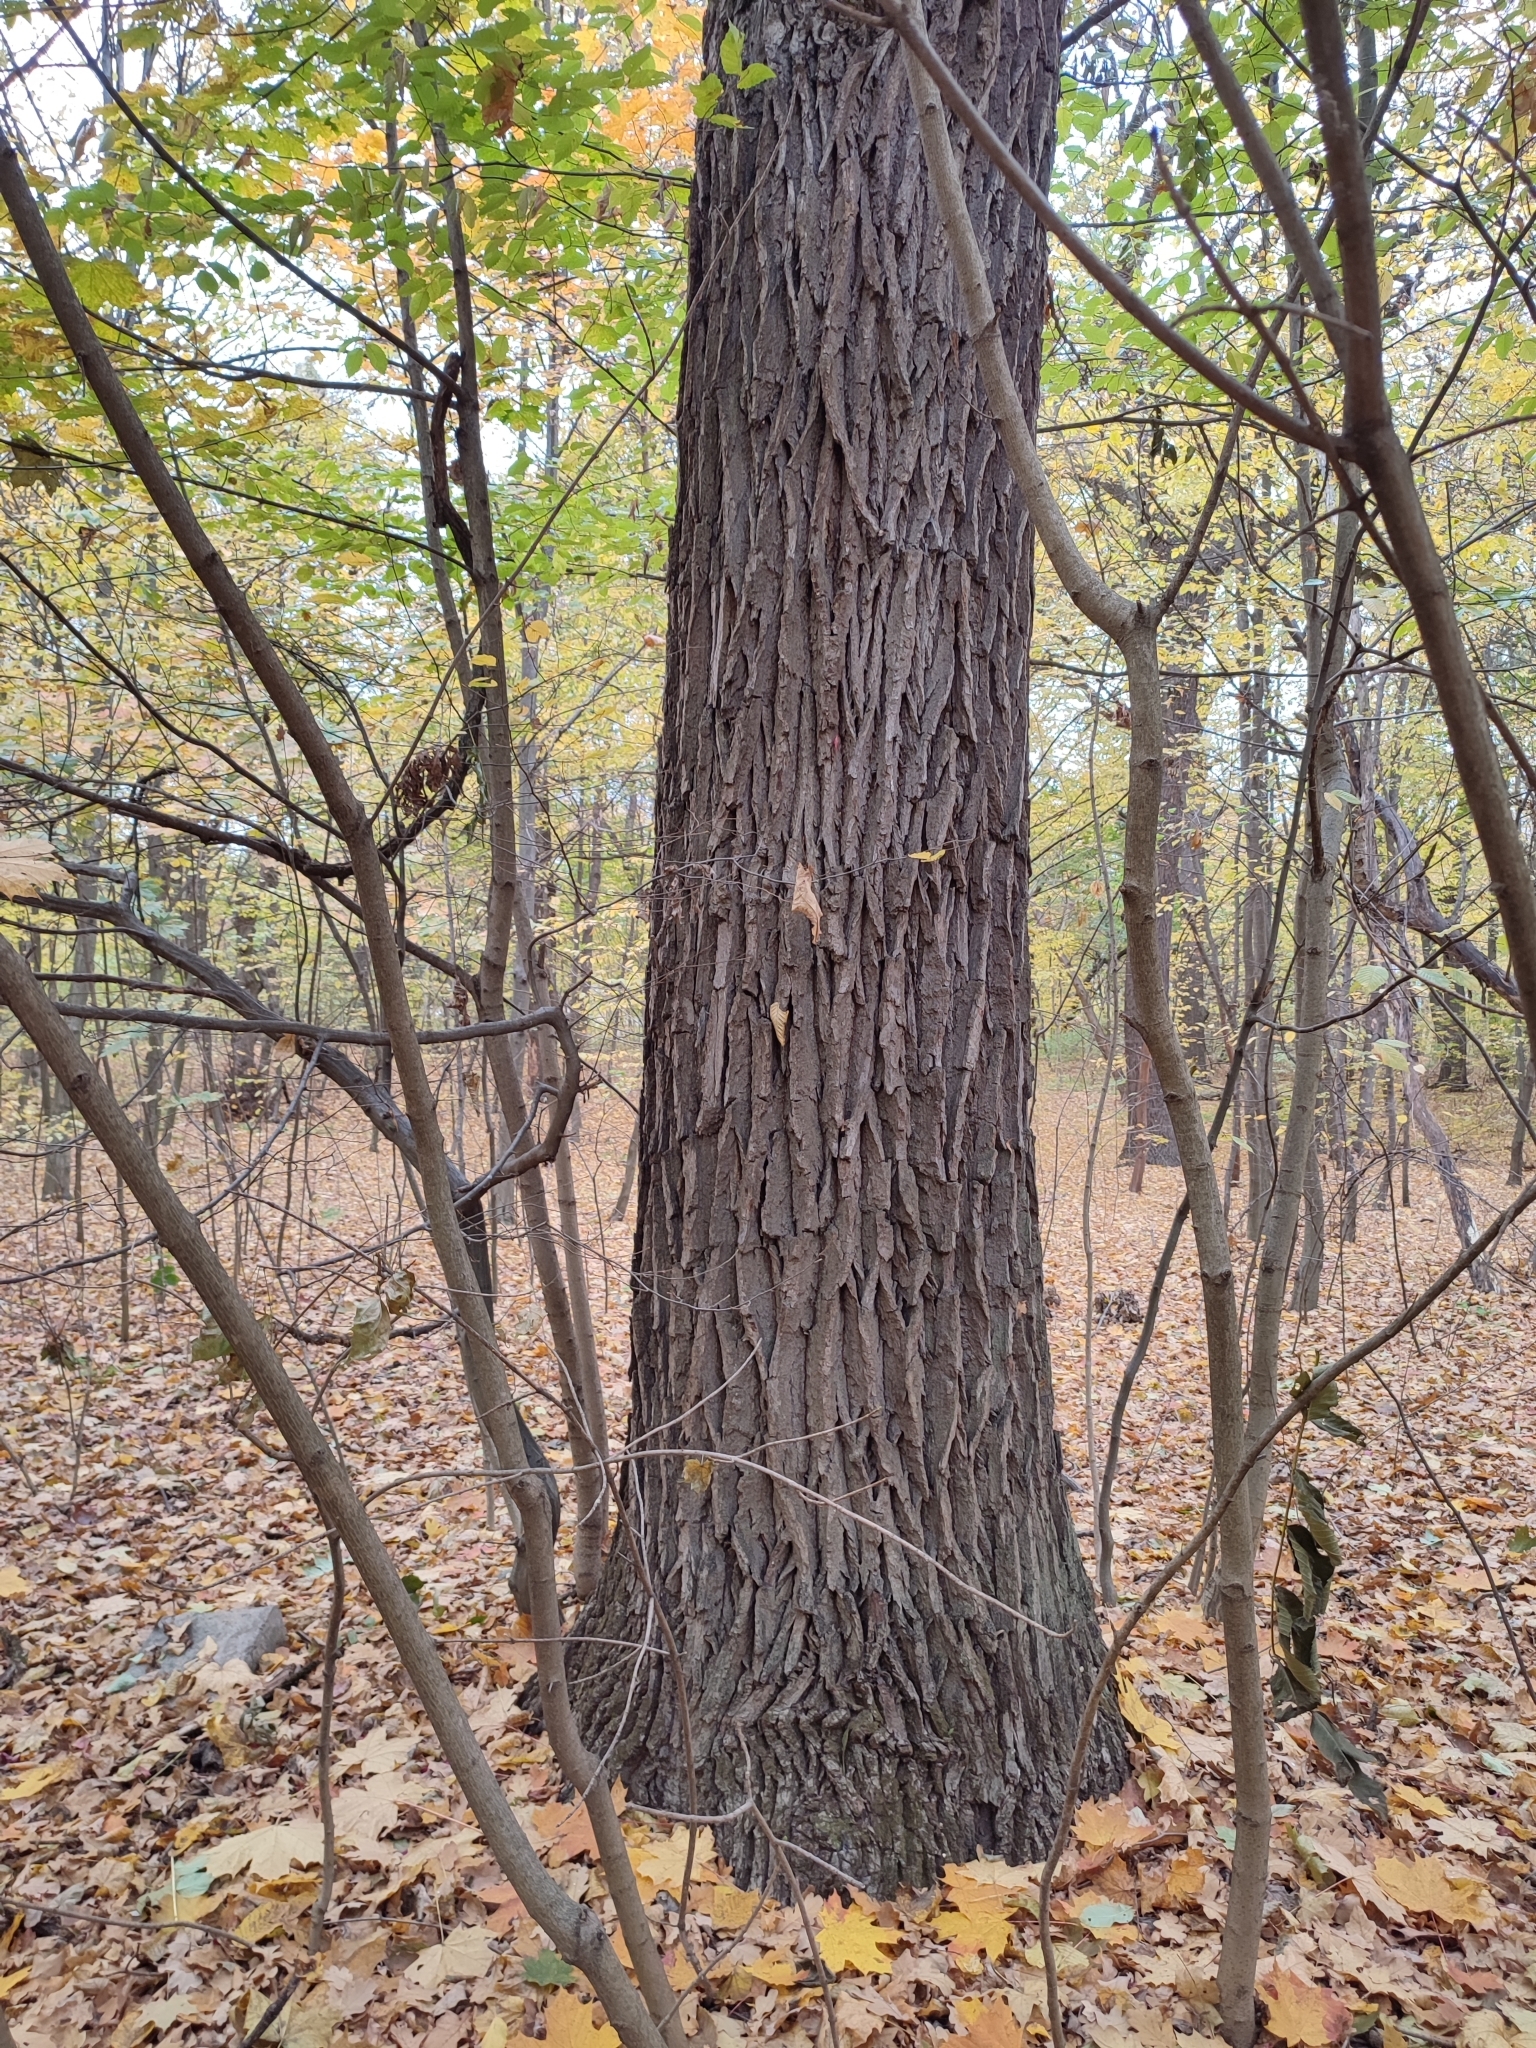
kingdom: Plantae
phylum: Tracheophyta
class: Magnoliopsida
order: Fagales
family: Fagaceae
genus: Quercus
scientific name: Quercus robur
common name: Pedunculate oak
